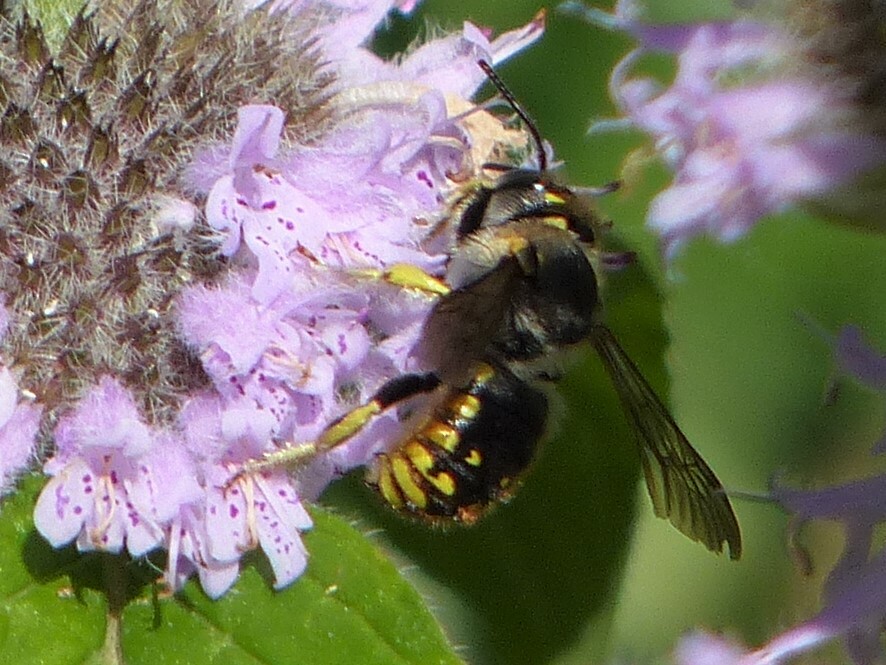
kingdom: Animalia
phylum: Arthropoda
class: Insecta
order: Hymenoptera
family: Megachilidae
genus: Anthidium
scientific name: Anthidium manicatum
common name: Wool carder bee
